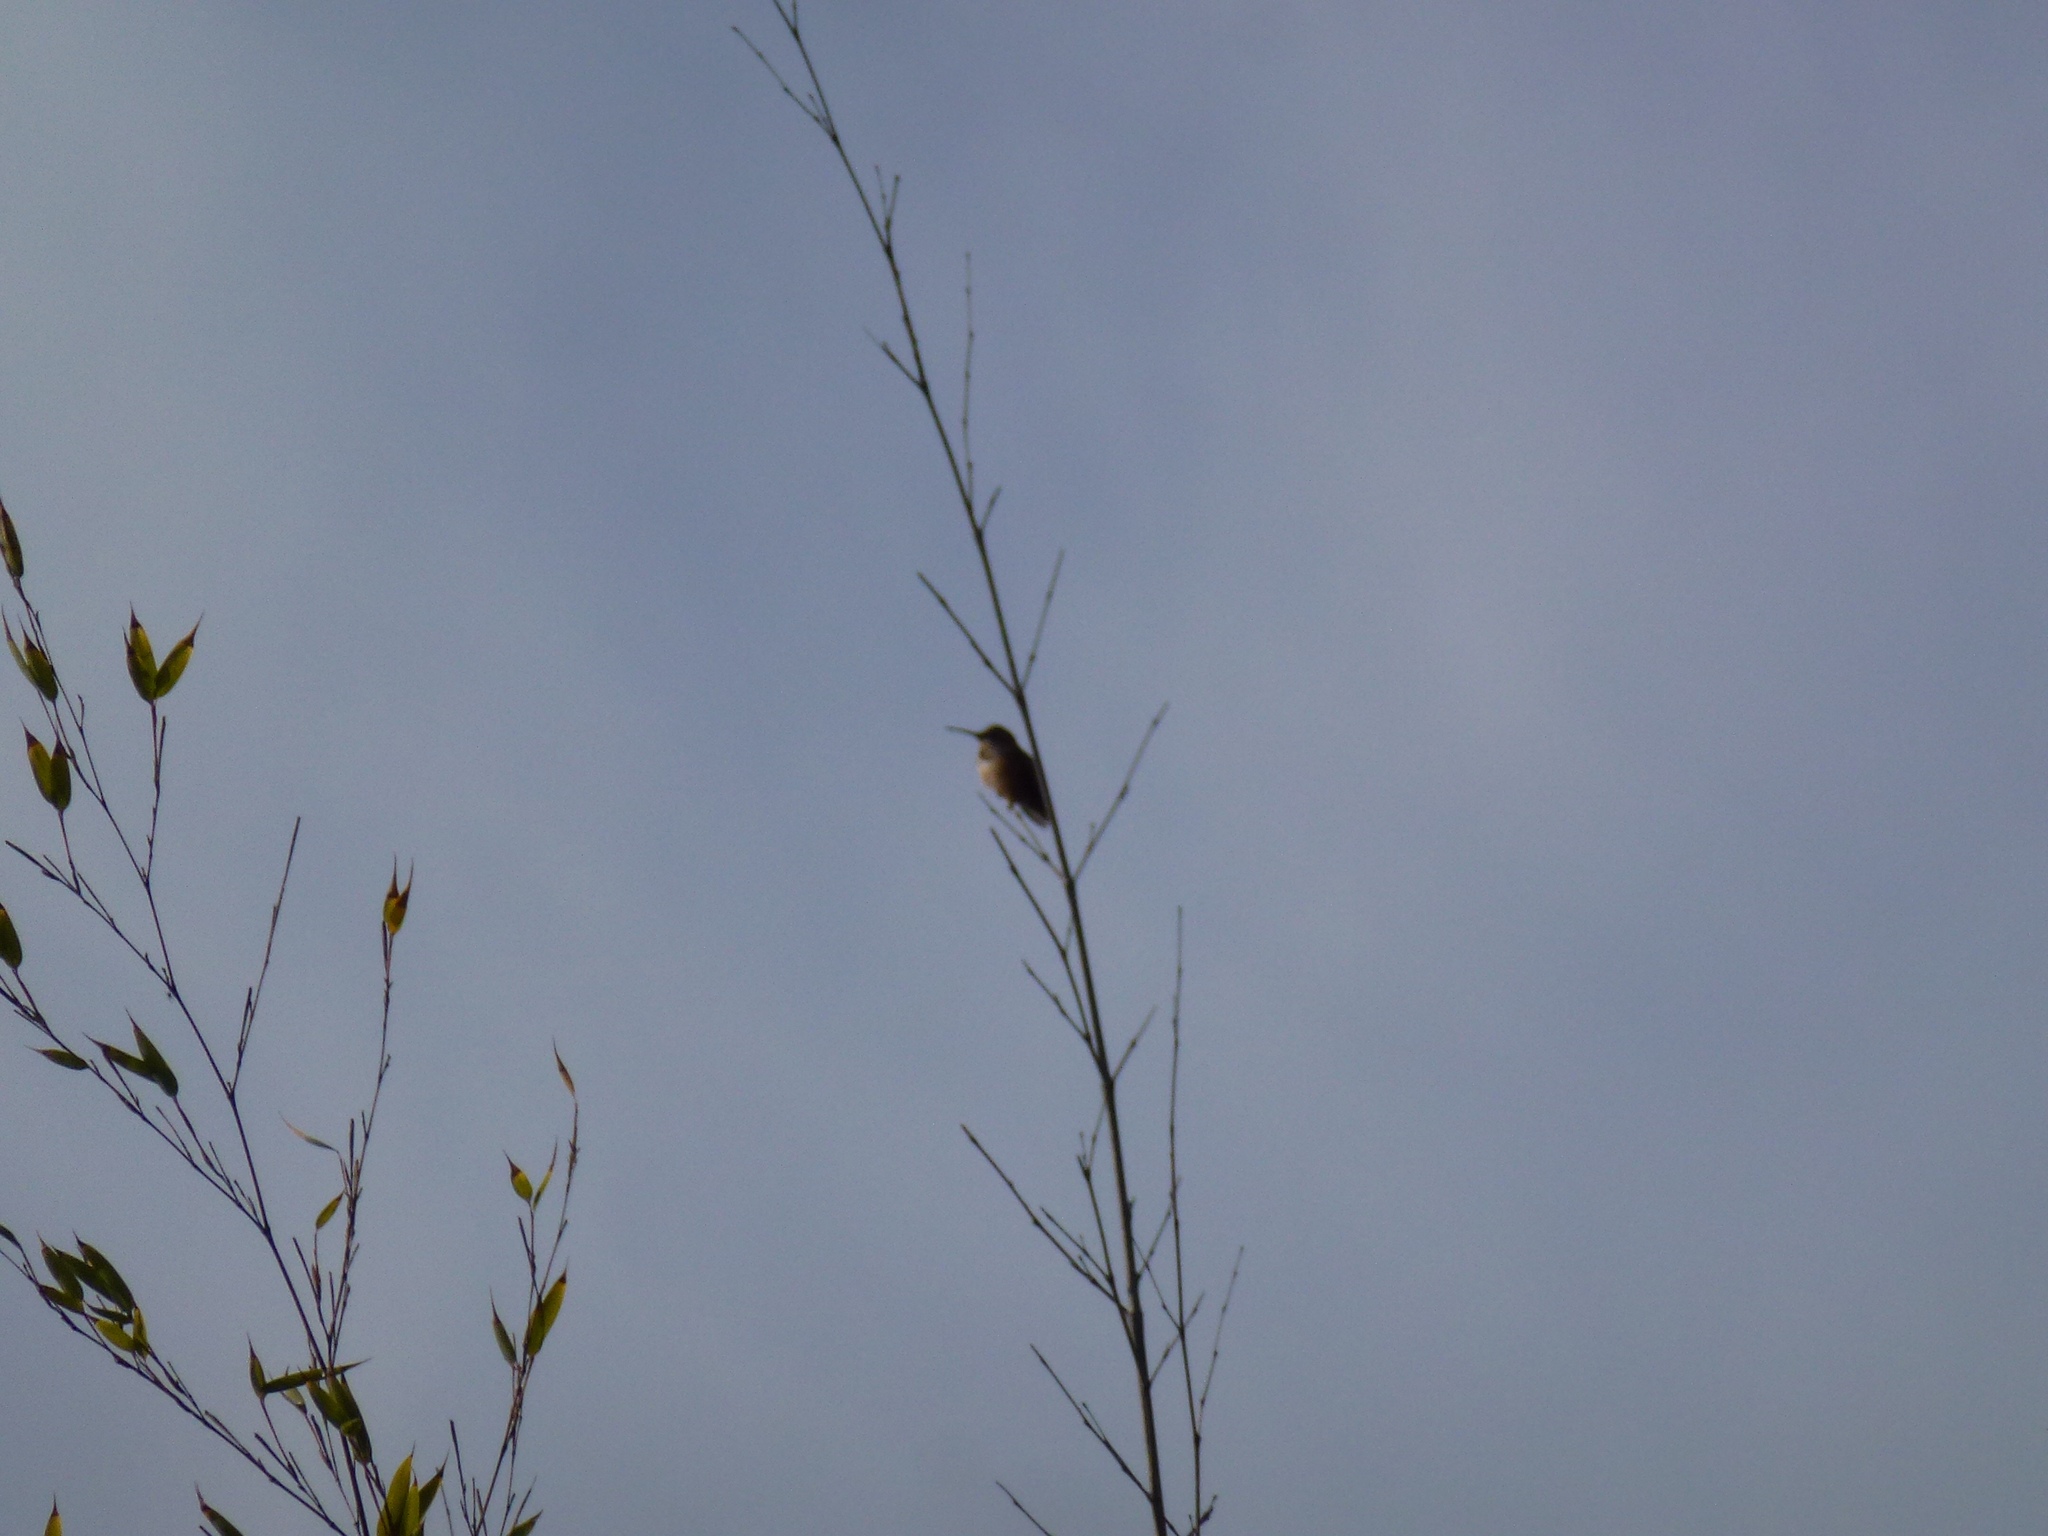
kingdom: Animalia
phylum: Chordata
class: Aves
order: Apodiformes
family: Trochilidae
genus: Selasphorus
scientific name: Selasphorus
